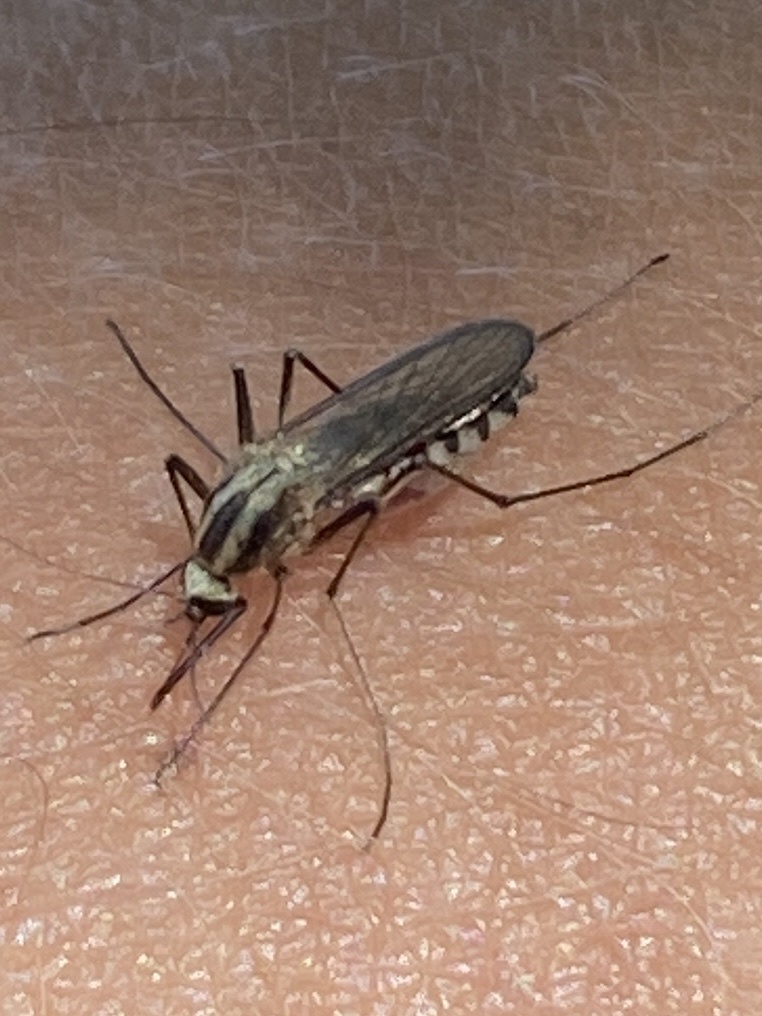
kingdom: Animalia
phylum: Arthropoda
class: Insecta
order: Diptera
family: Culicidae
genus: Aedes
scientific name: Aedes trivittatus
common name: Plains floodwater mosquito
